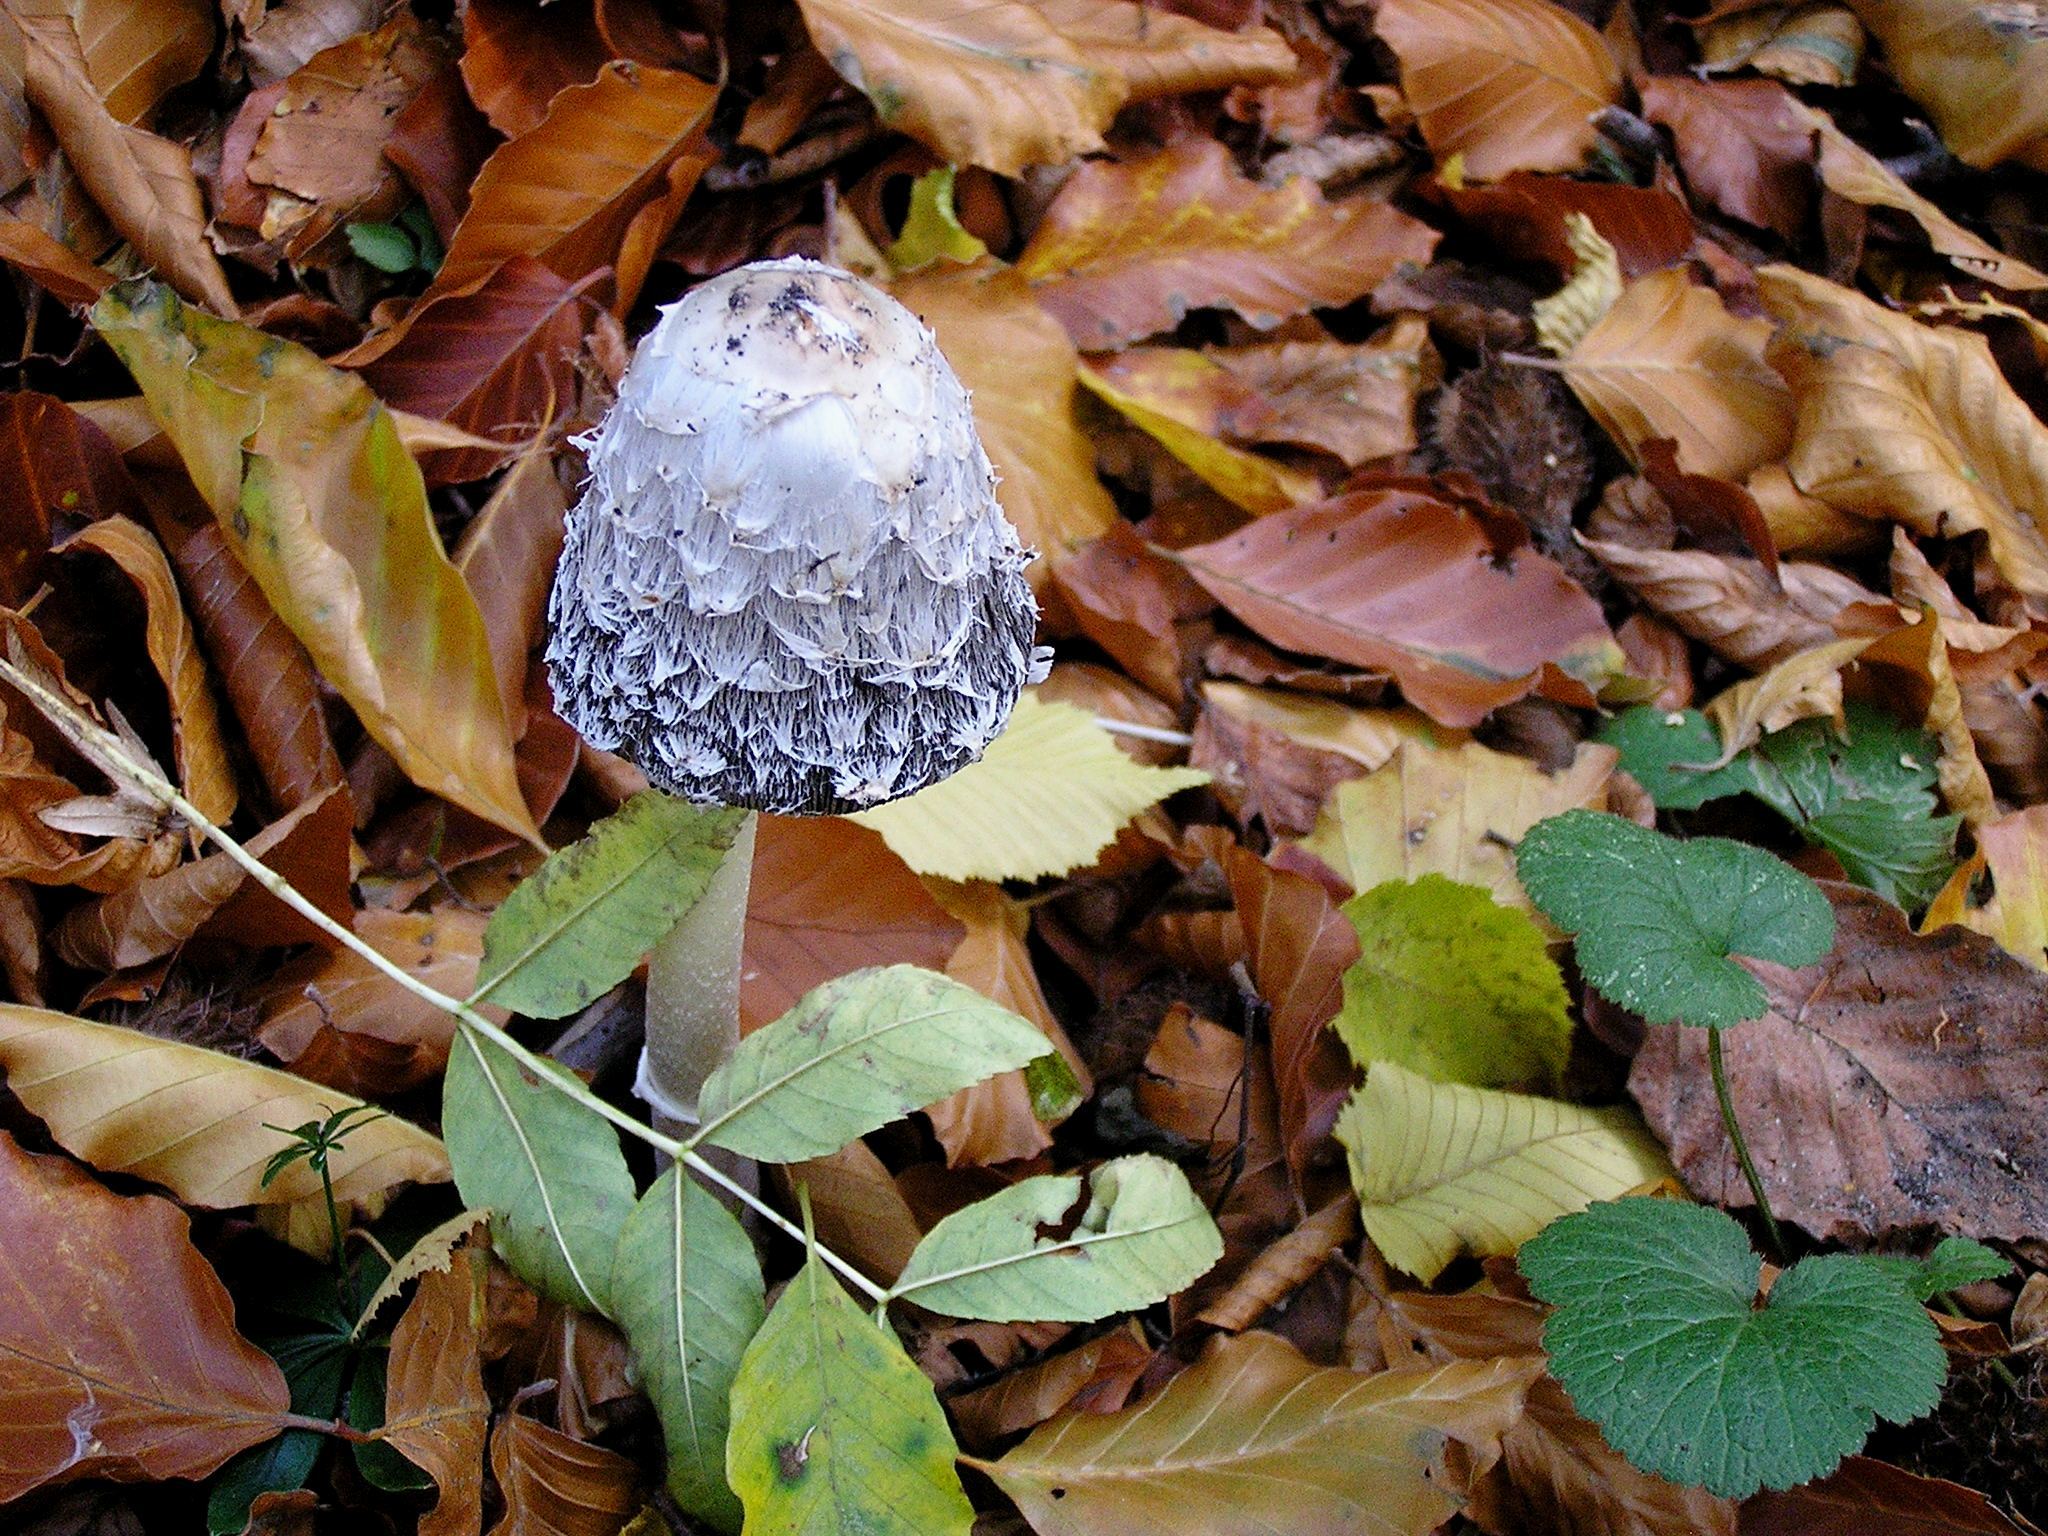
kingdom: Fungi
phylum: Basidiomycota
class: Agaricomycetes
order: Agaricales
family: Agaricaceae
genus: Coprinus
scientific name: Coprinus comatus
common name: Lawyer's wig
